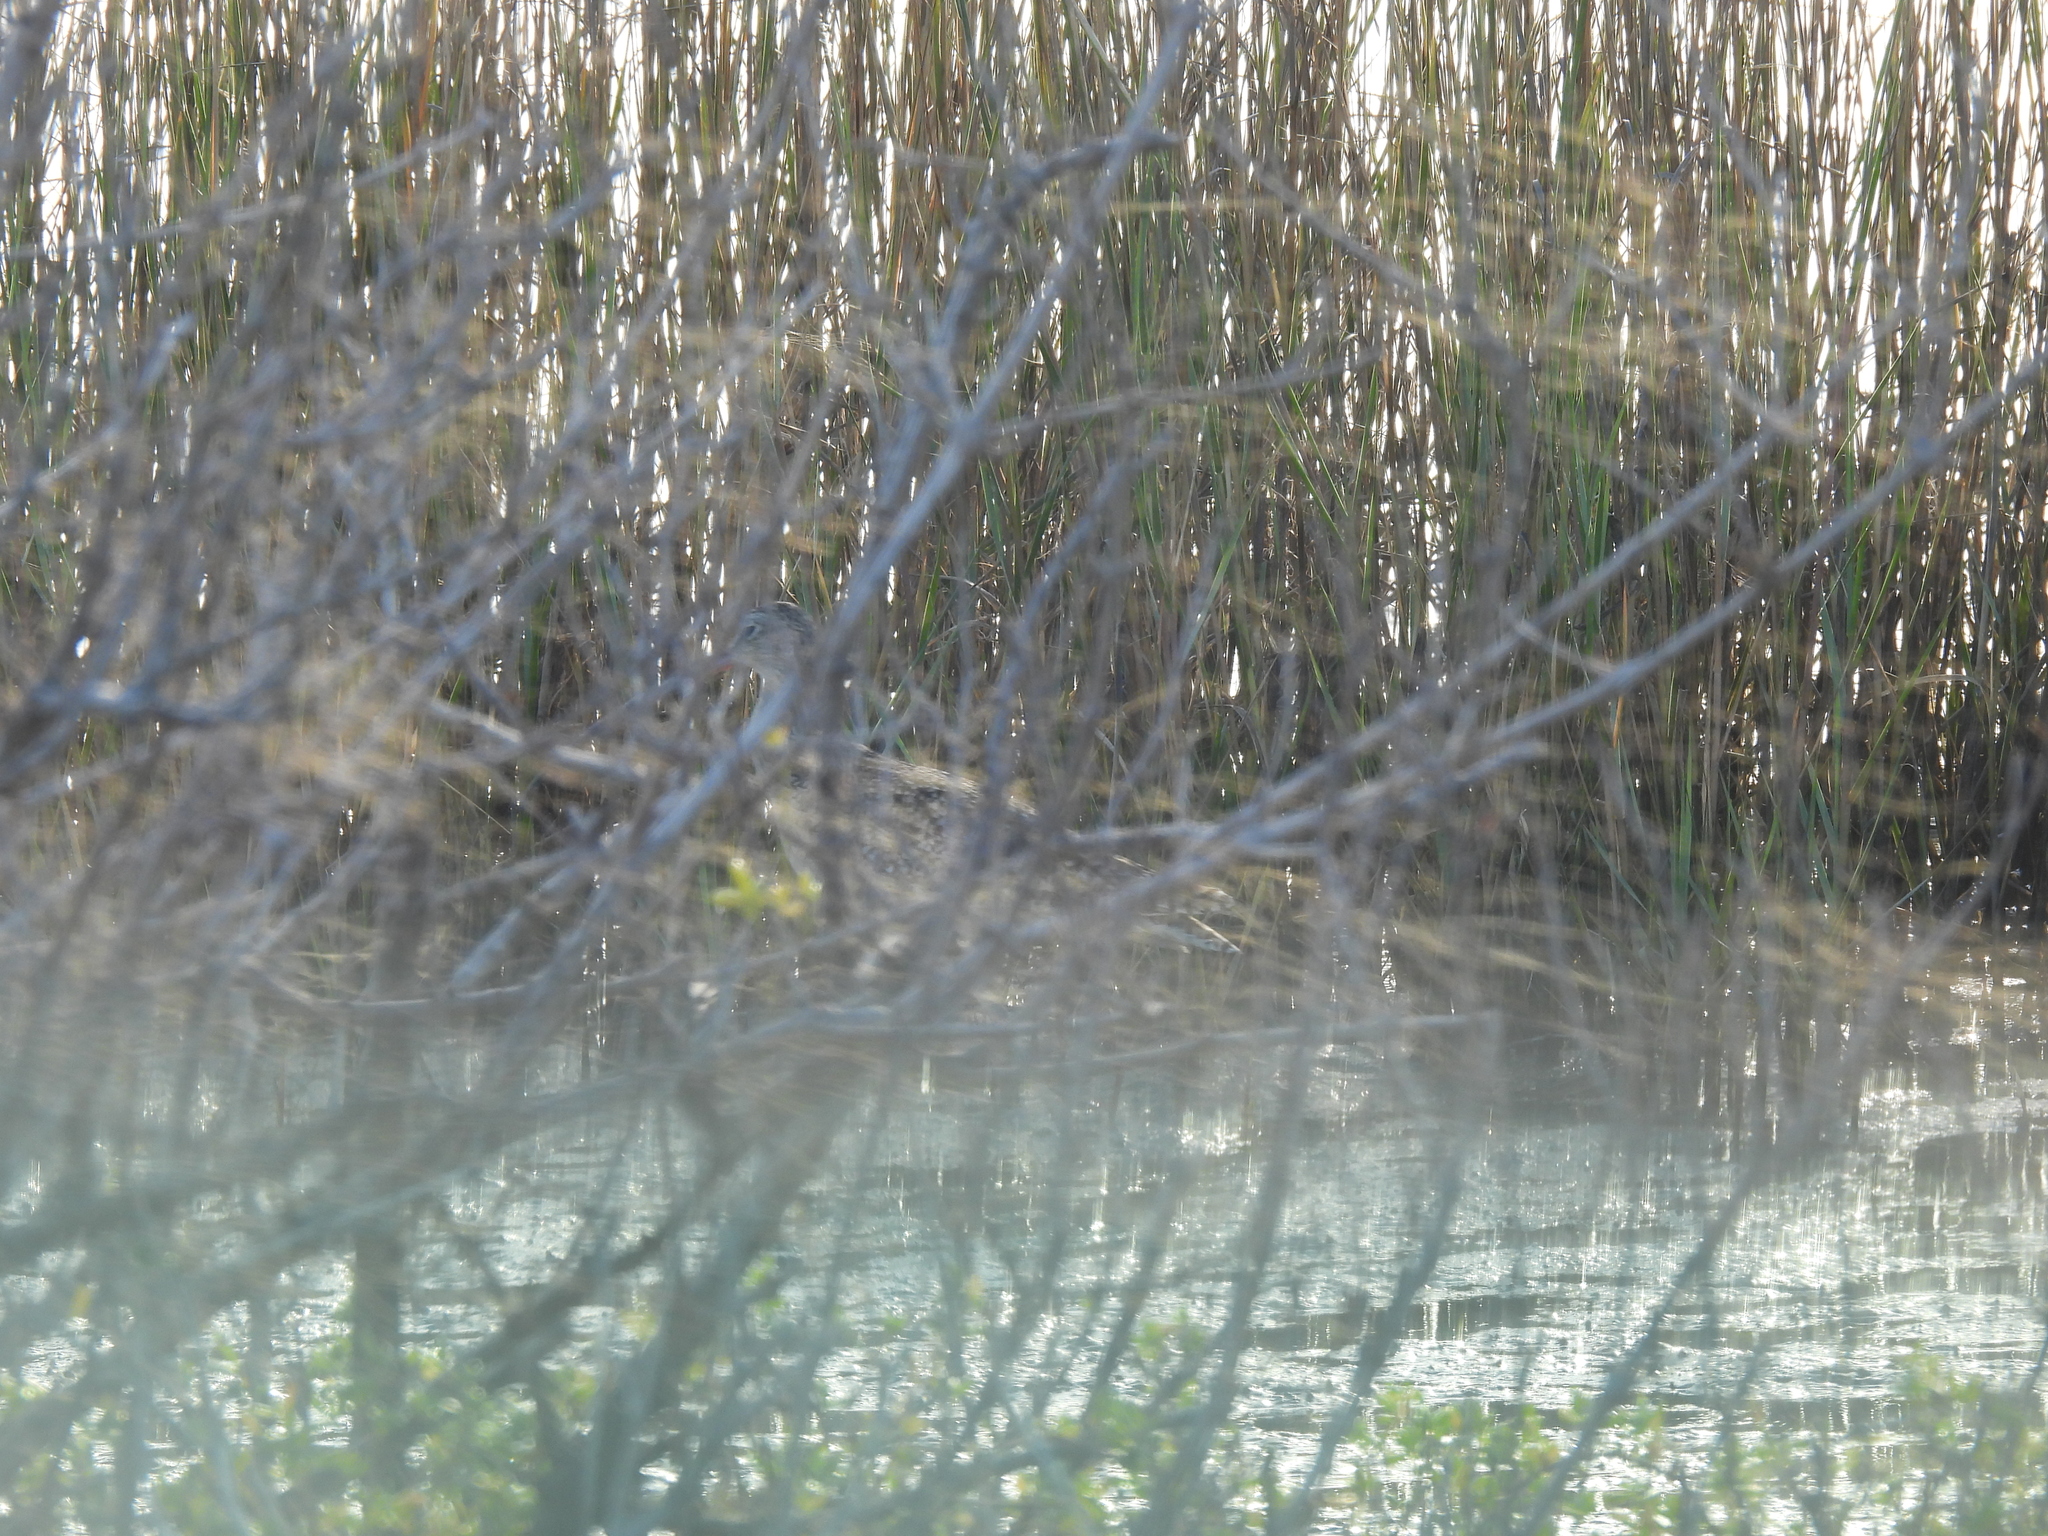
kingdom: Animalia
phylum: Chordata
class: Aves
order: Charadriiformes
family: Scolopacidae
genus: Numenius
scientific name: Numenius americanus
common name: Long-billed curlew
